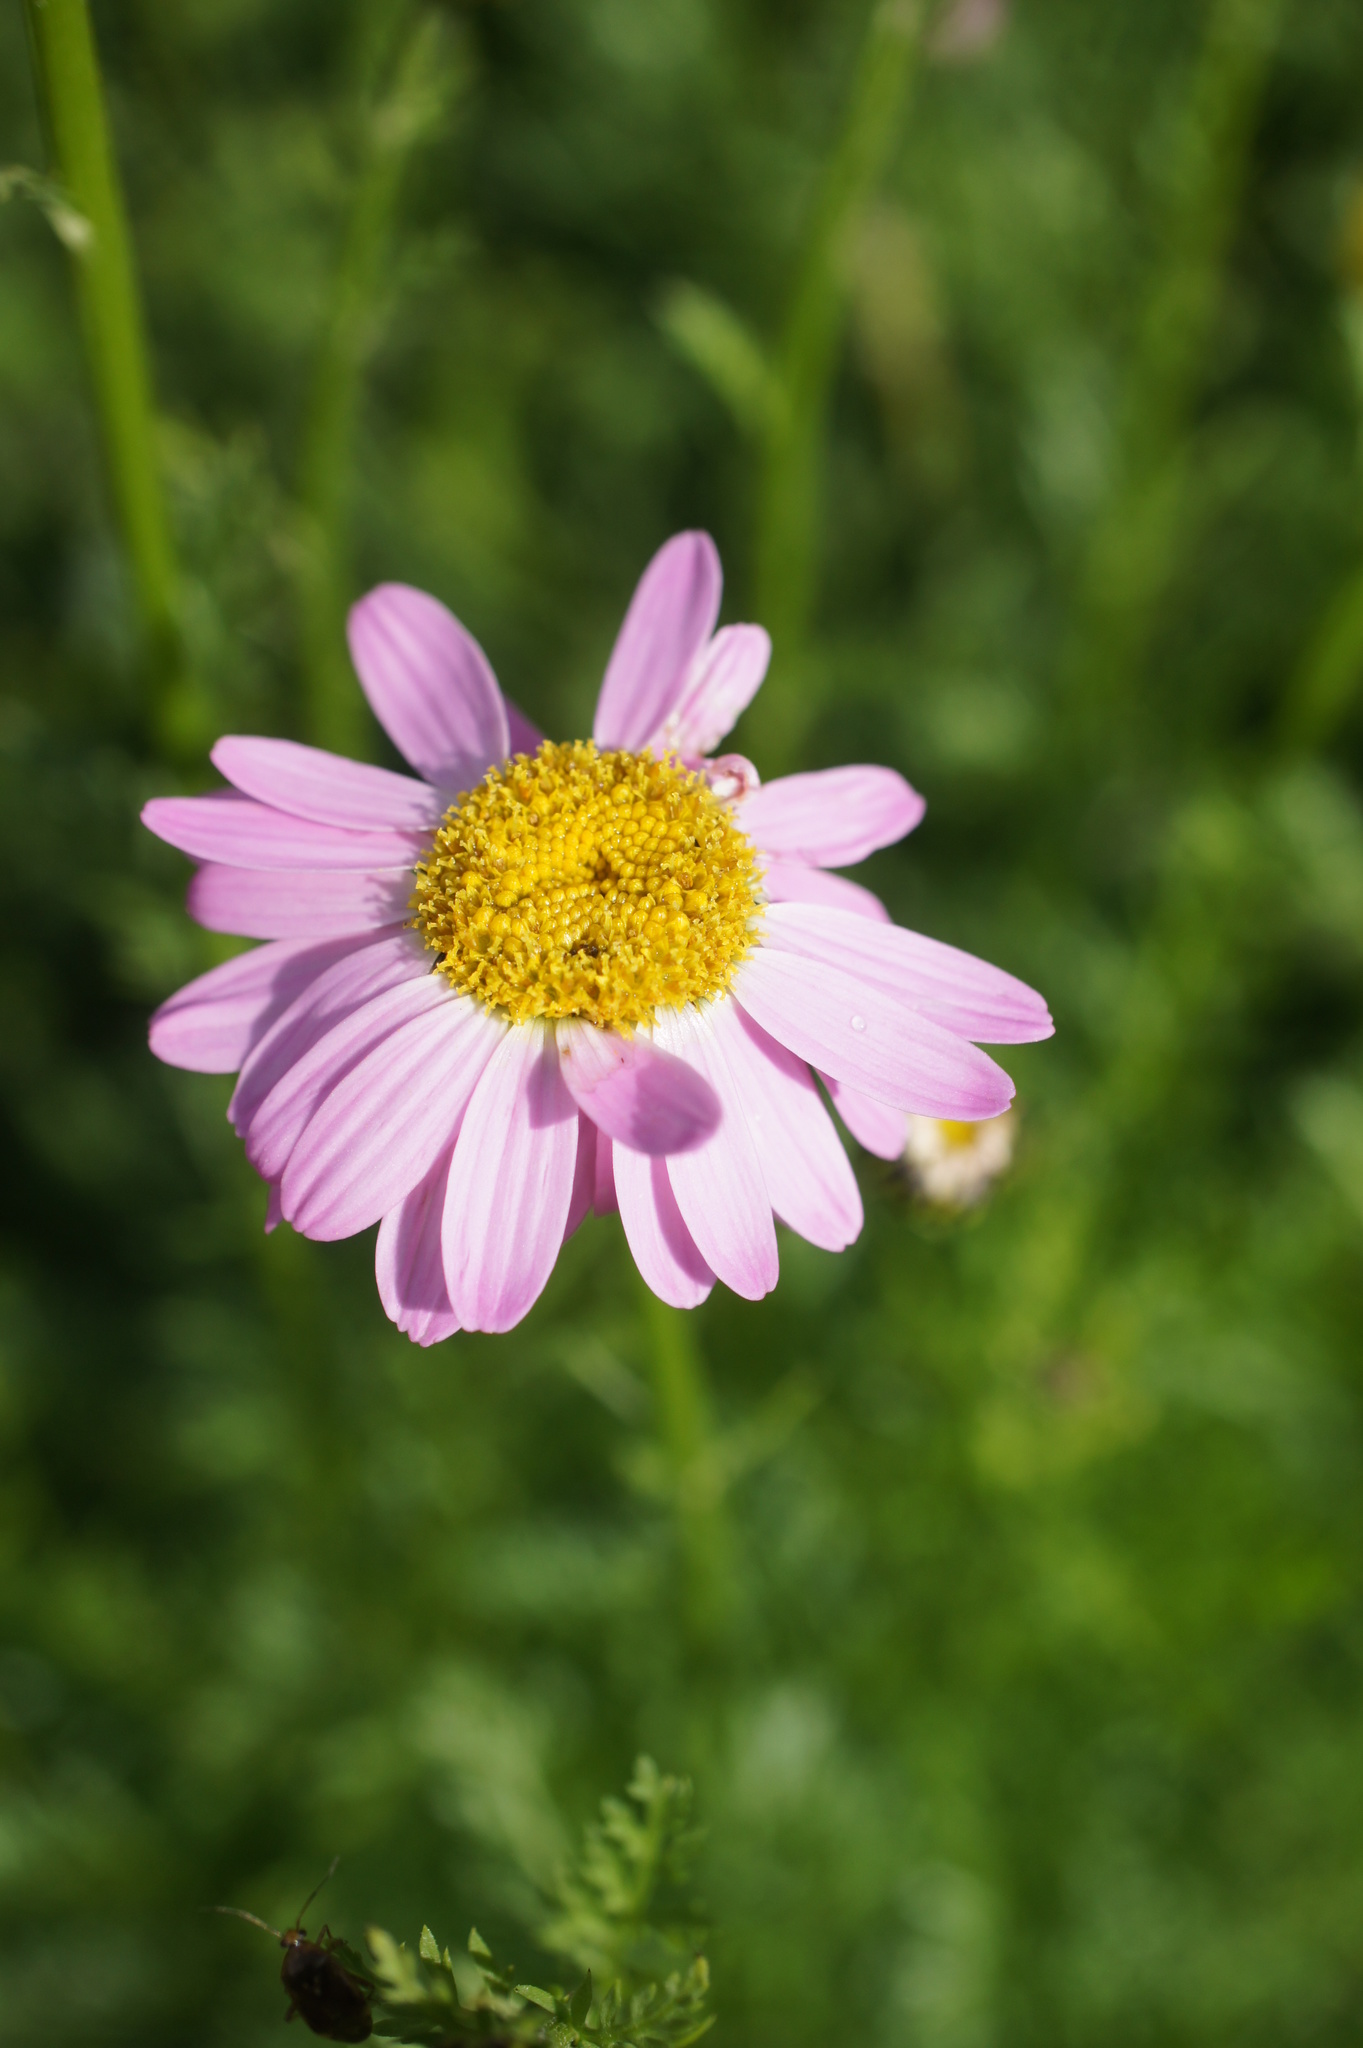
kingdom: Plantae
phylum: Tracheophyta
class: Magnoliopsida
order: Asterales
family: Asteraceae
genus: Tanacetum
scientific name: Tanacetum coccineum
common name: Pyrethum daisy
